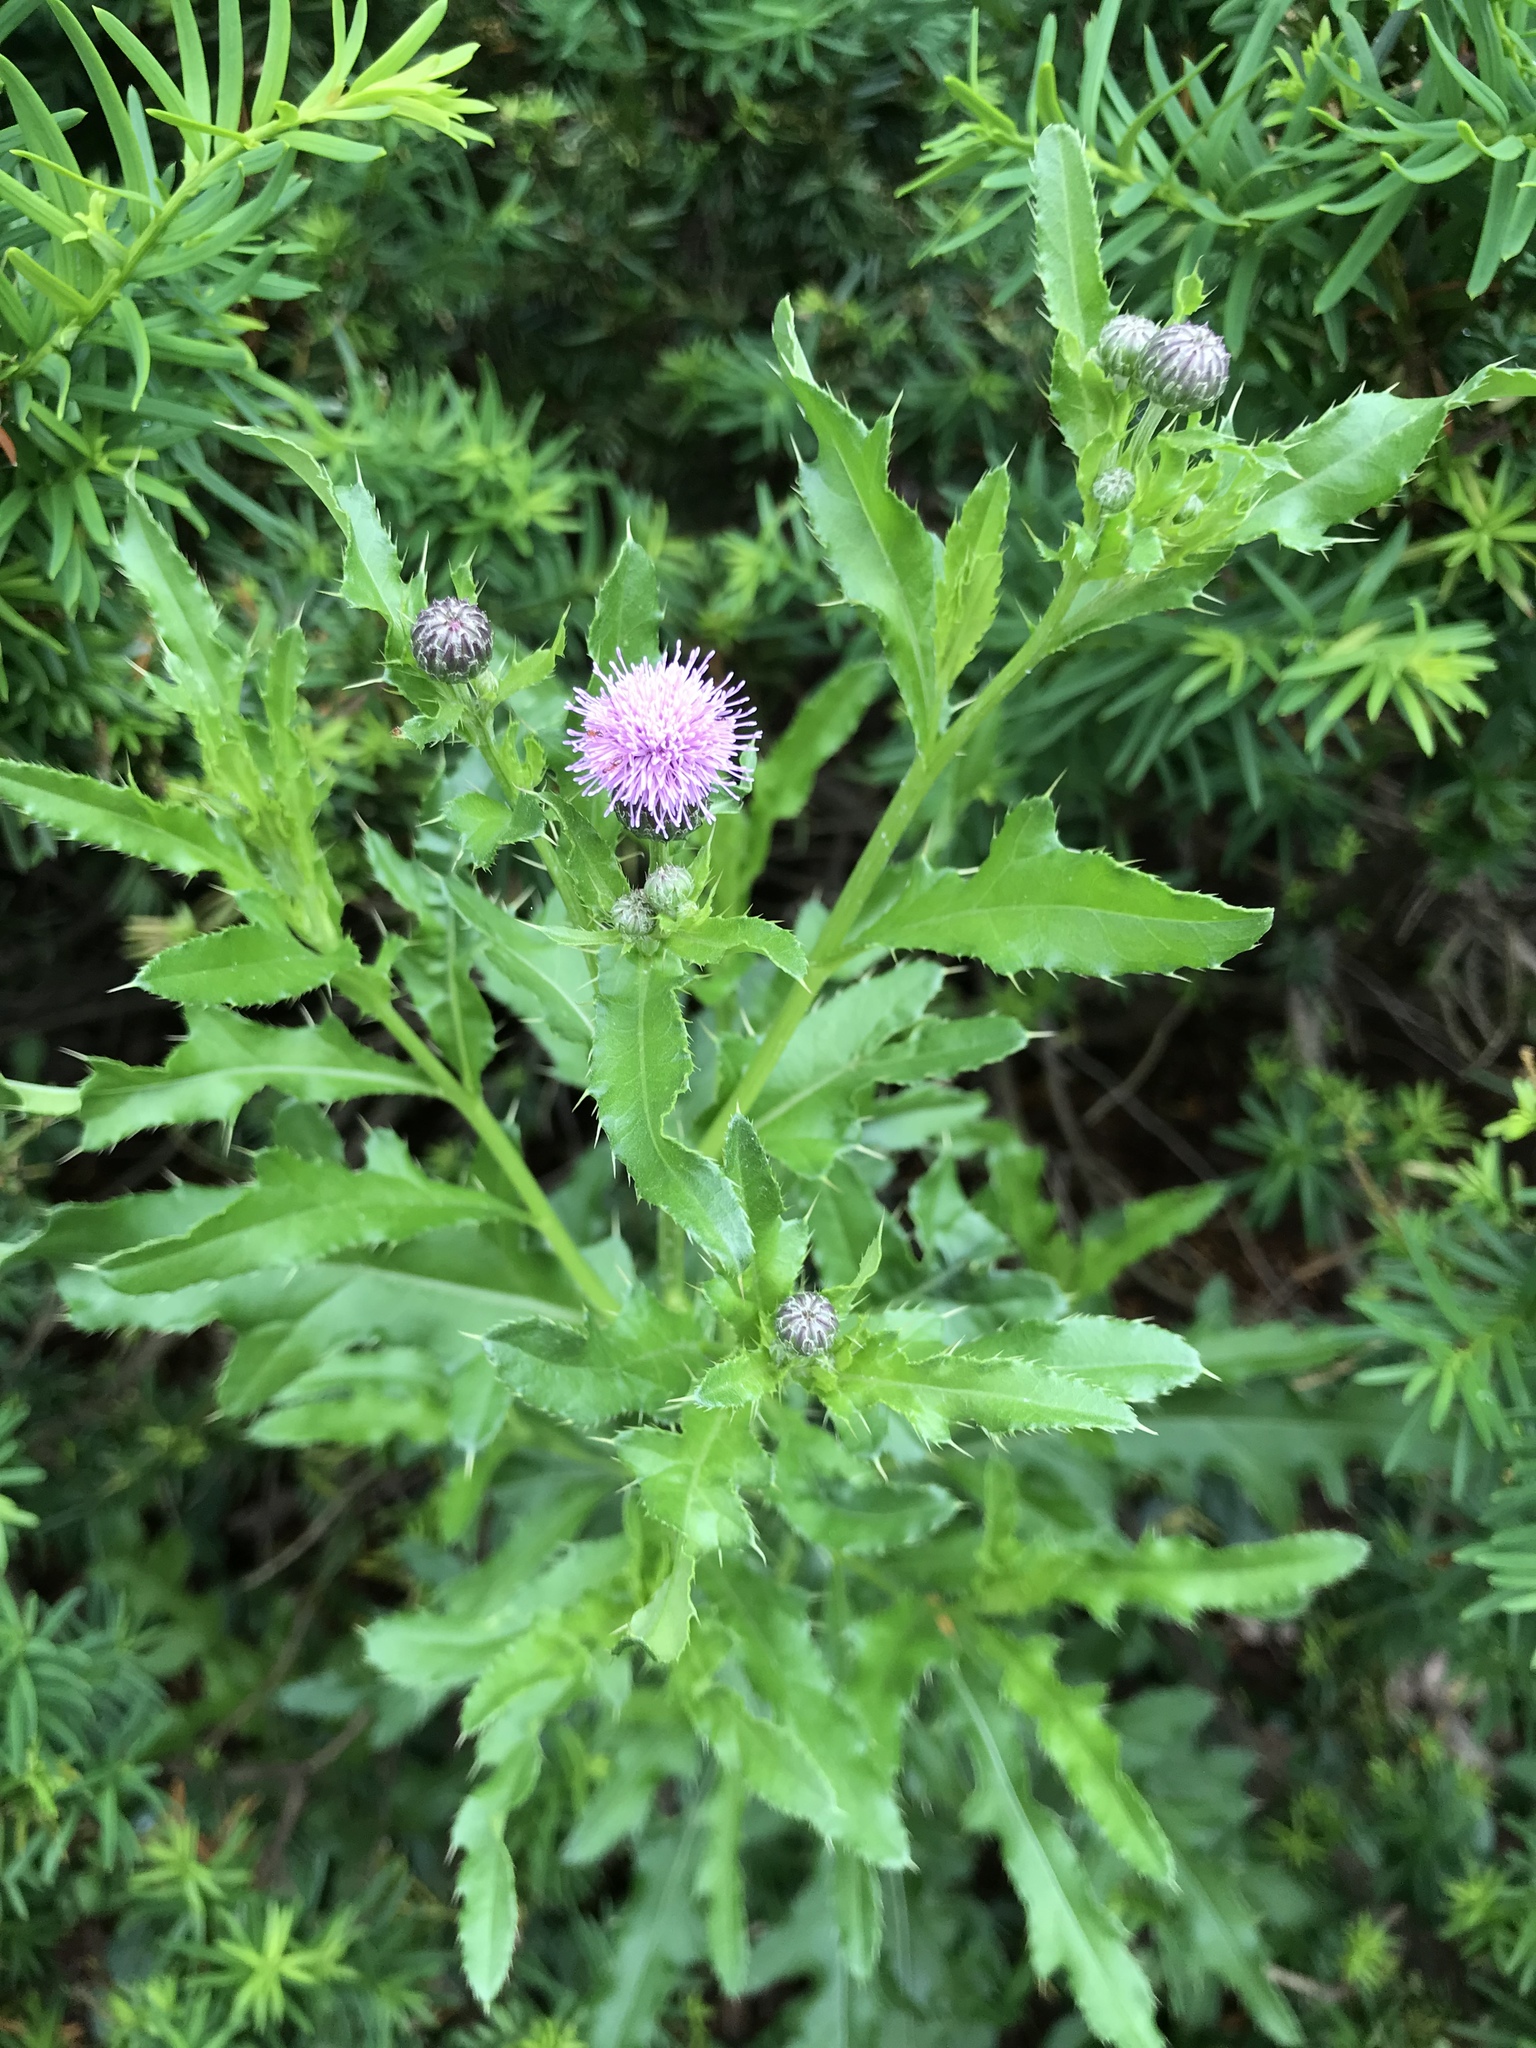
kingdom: Plantae
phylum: Tracheophyta
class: Magnoliopsida
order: Asterales
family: Asteraceae
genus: Cirsium
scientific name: Cirsium arvense
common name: Creeping thistle
